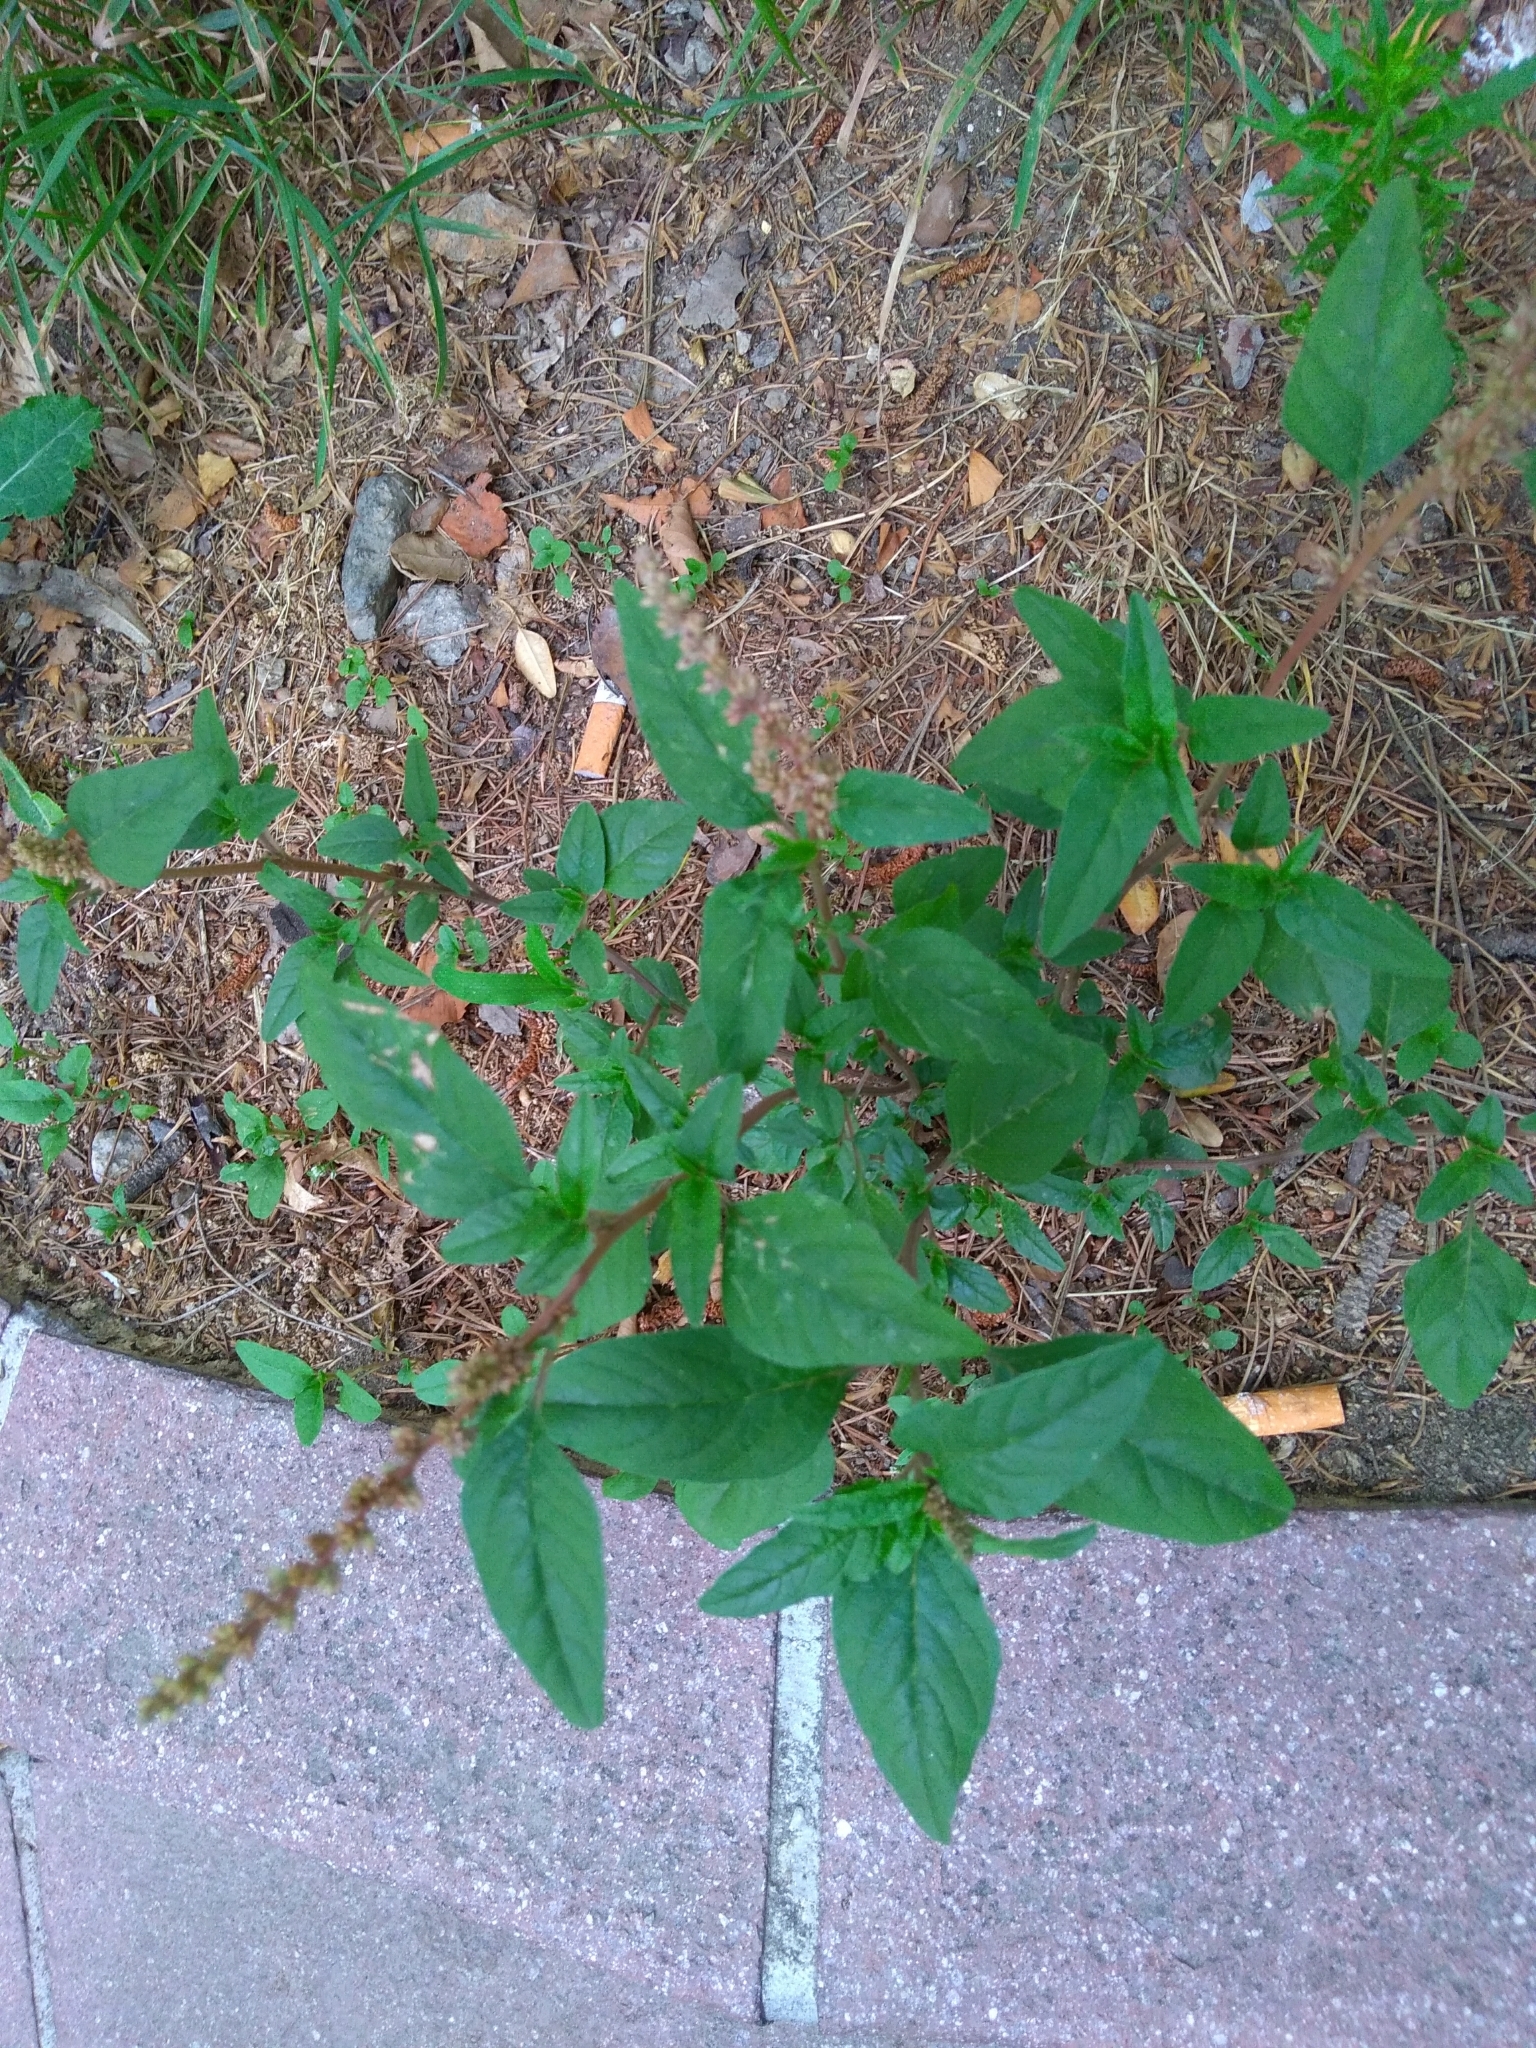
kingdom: Plantae
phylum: Tracheophyta
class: Magnoliopsida
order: Caryophyllales
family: Amaranthaceae
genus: Amaranthus
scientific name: Amaranthus deflexus
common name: Perennial pigweed
